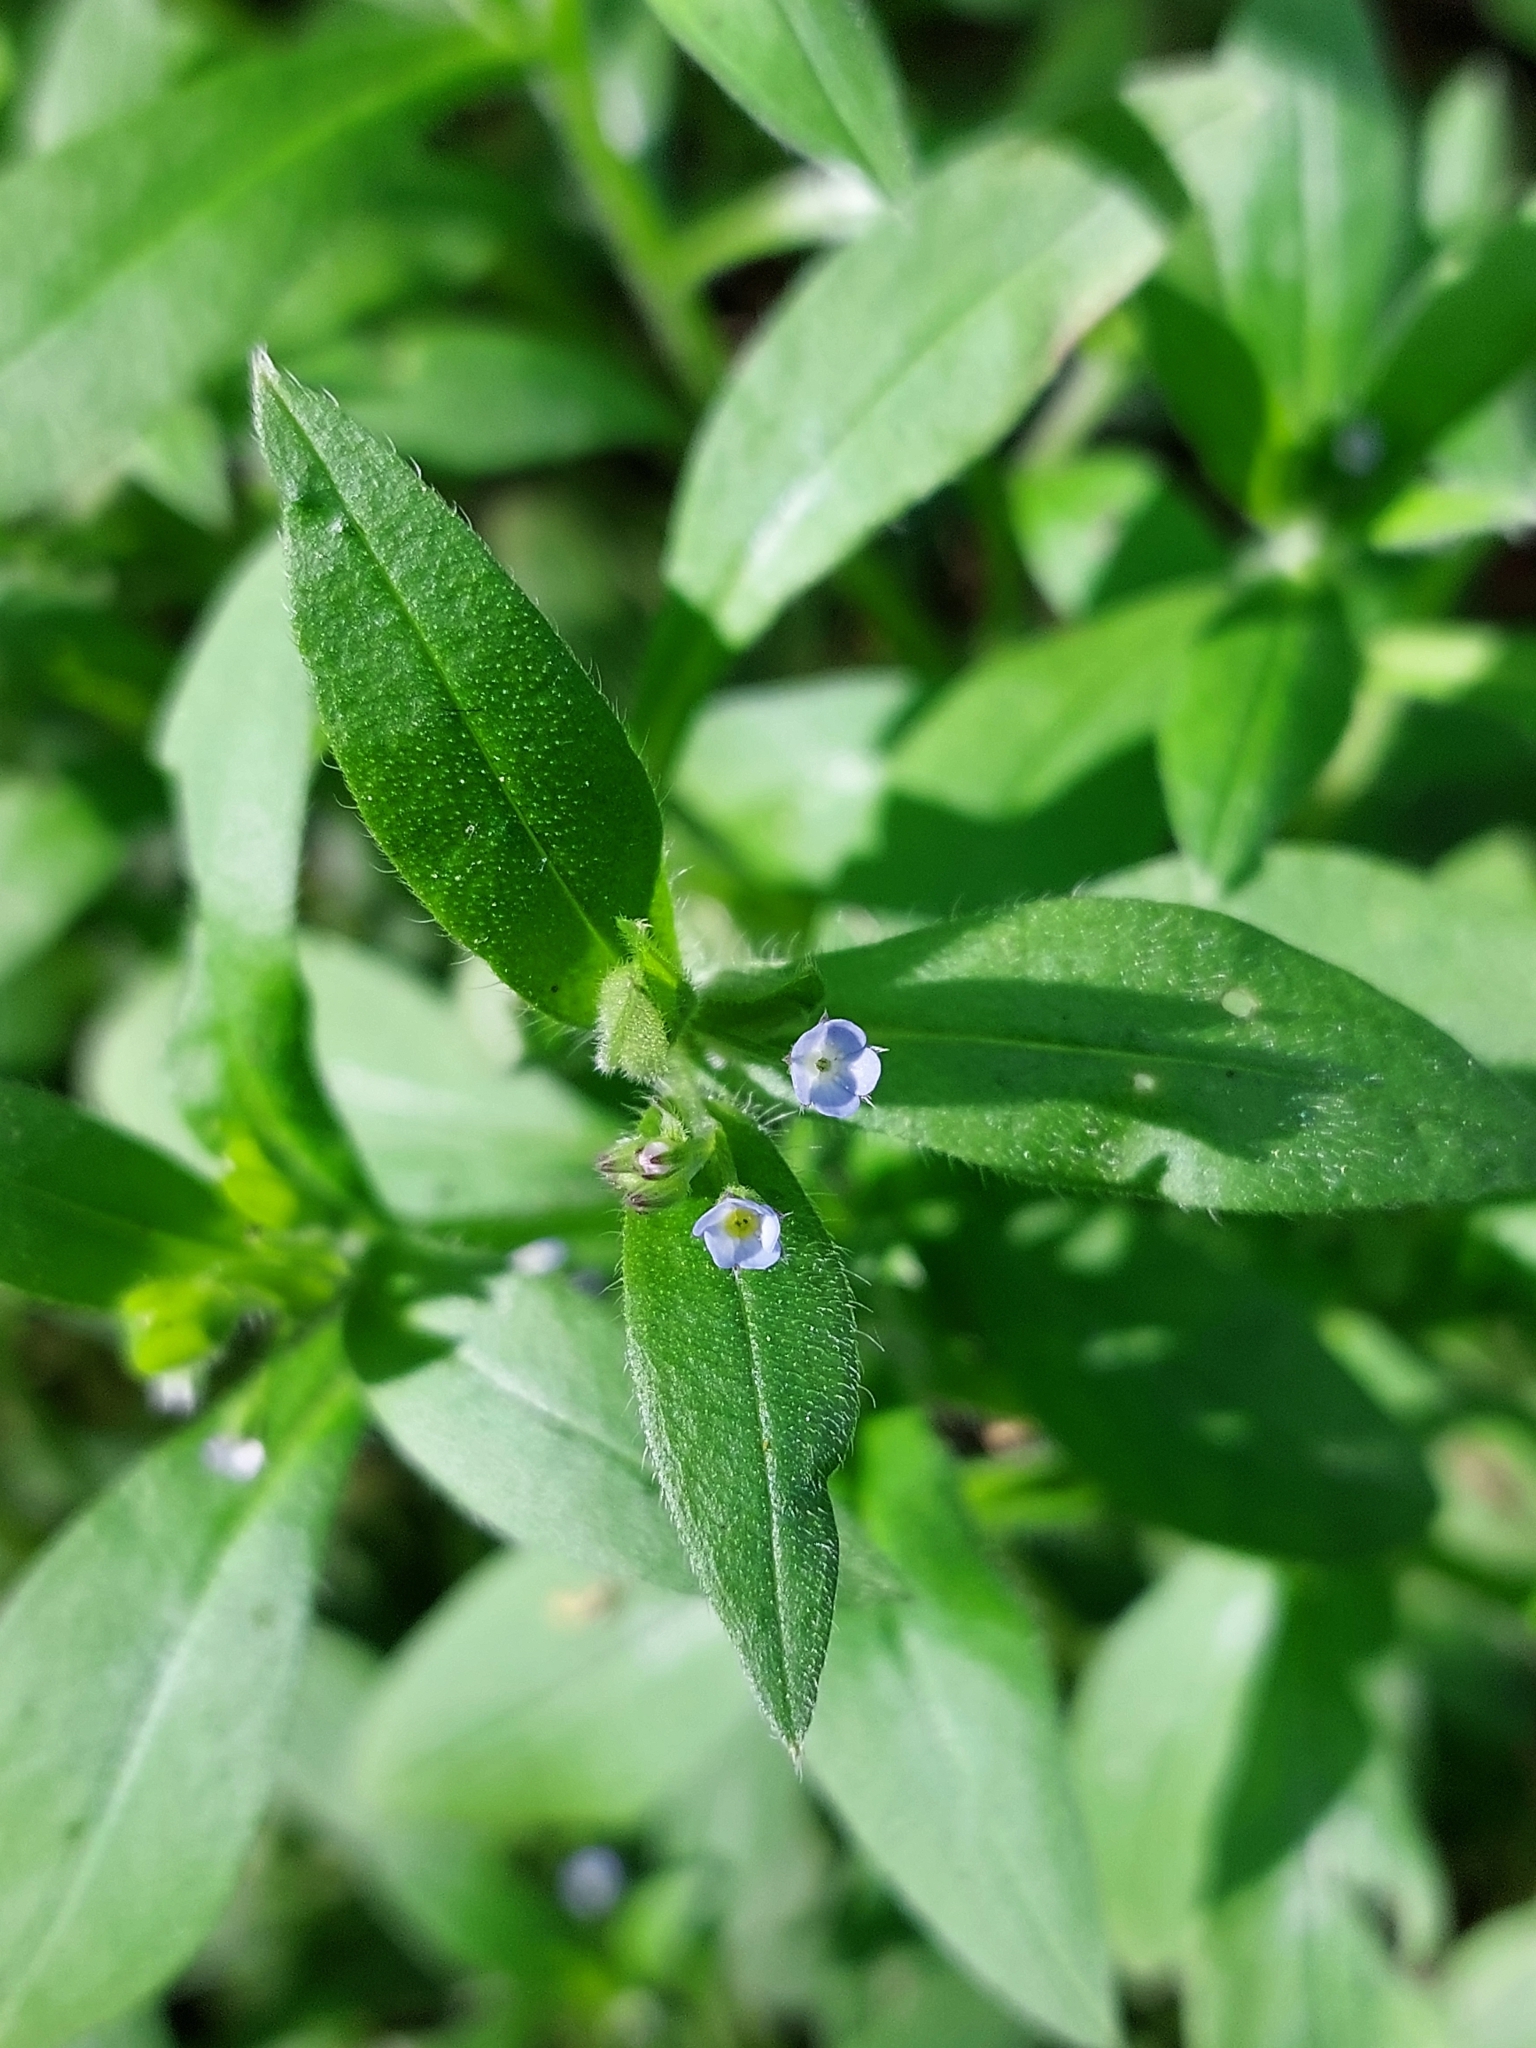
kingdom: Plantae
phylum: Tracheophyta
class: Magnoliopsida
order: Boraginales
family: Boraginaceae
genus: Myosotis
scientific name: Myosotis sparsiflora
